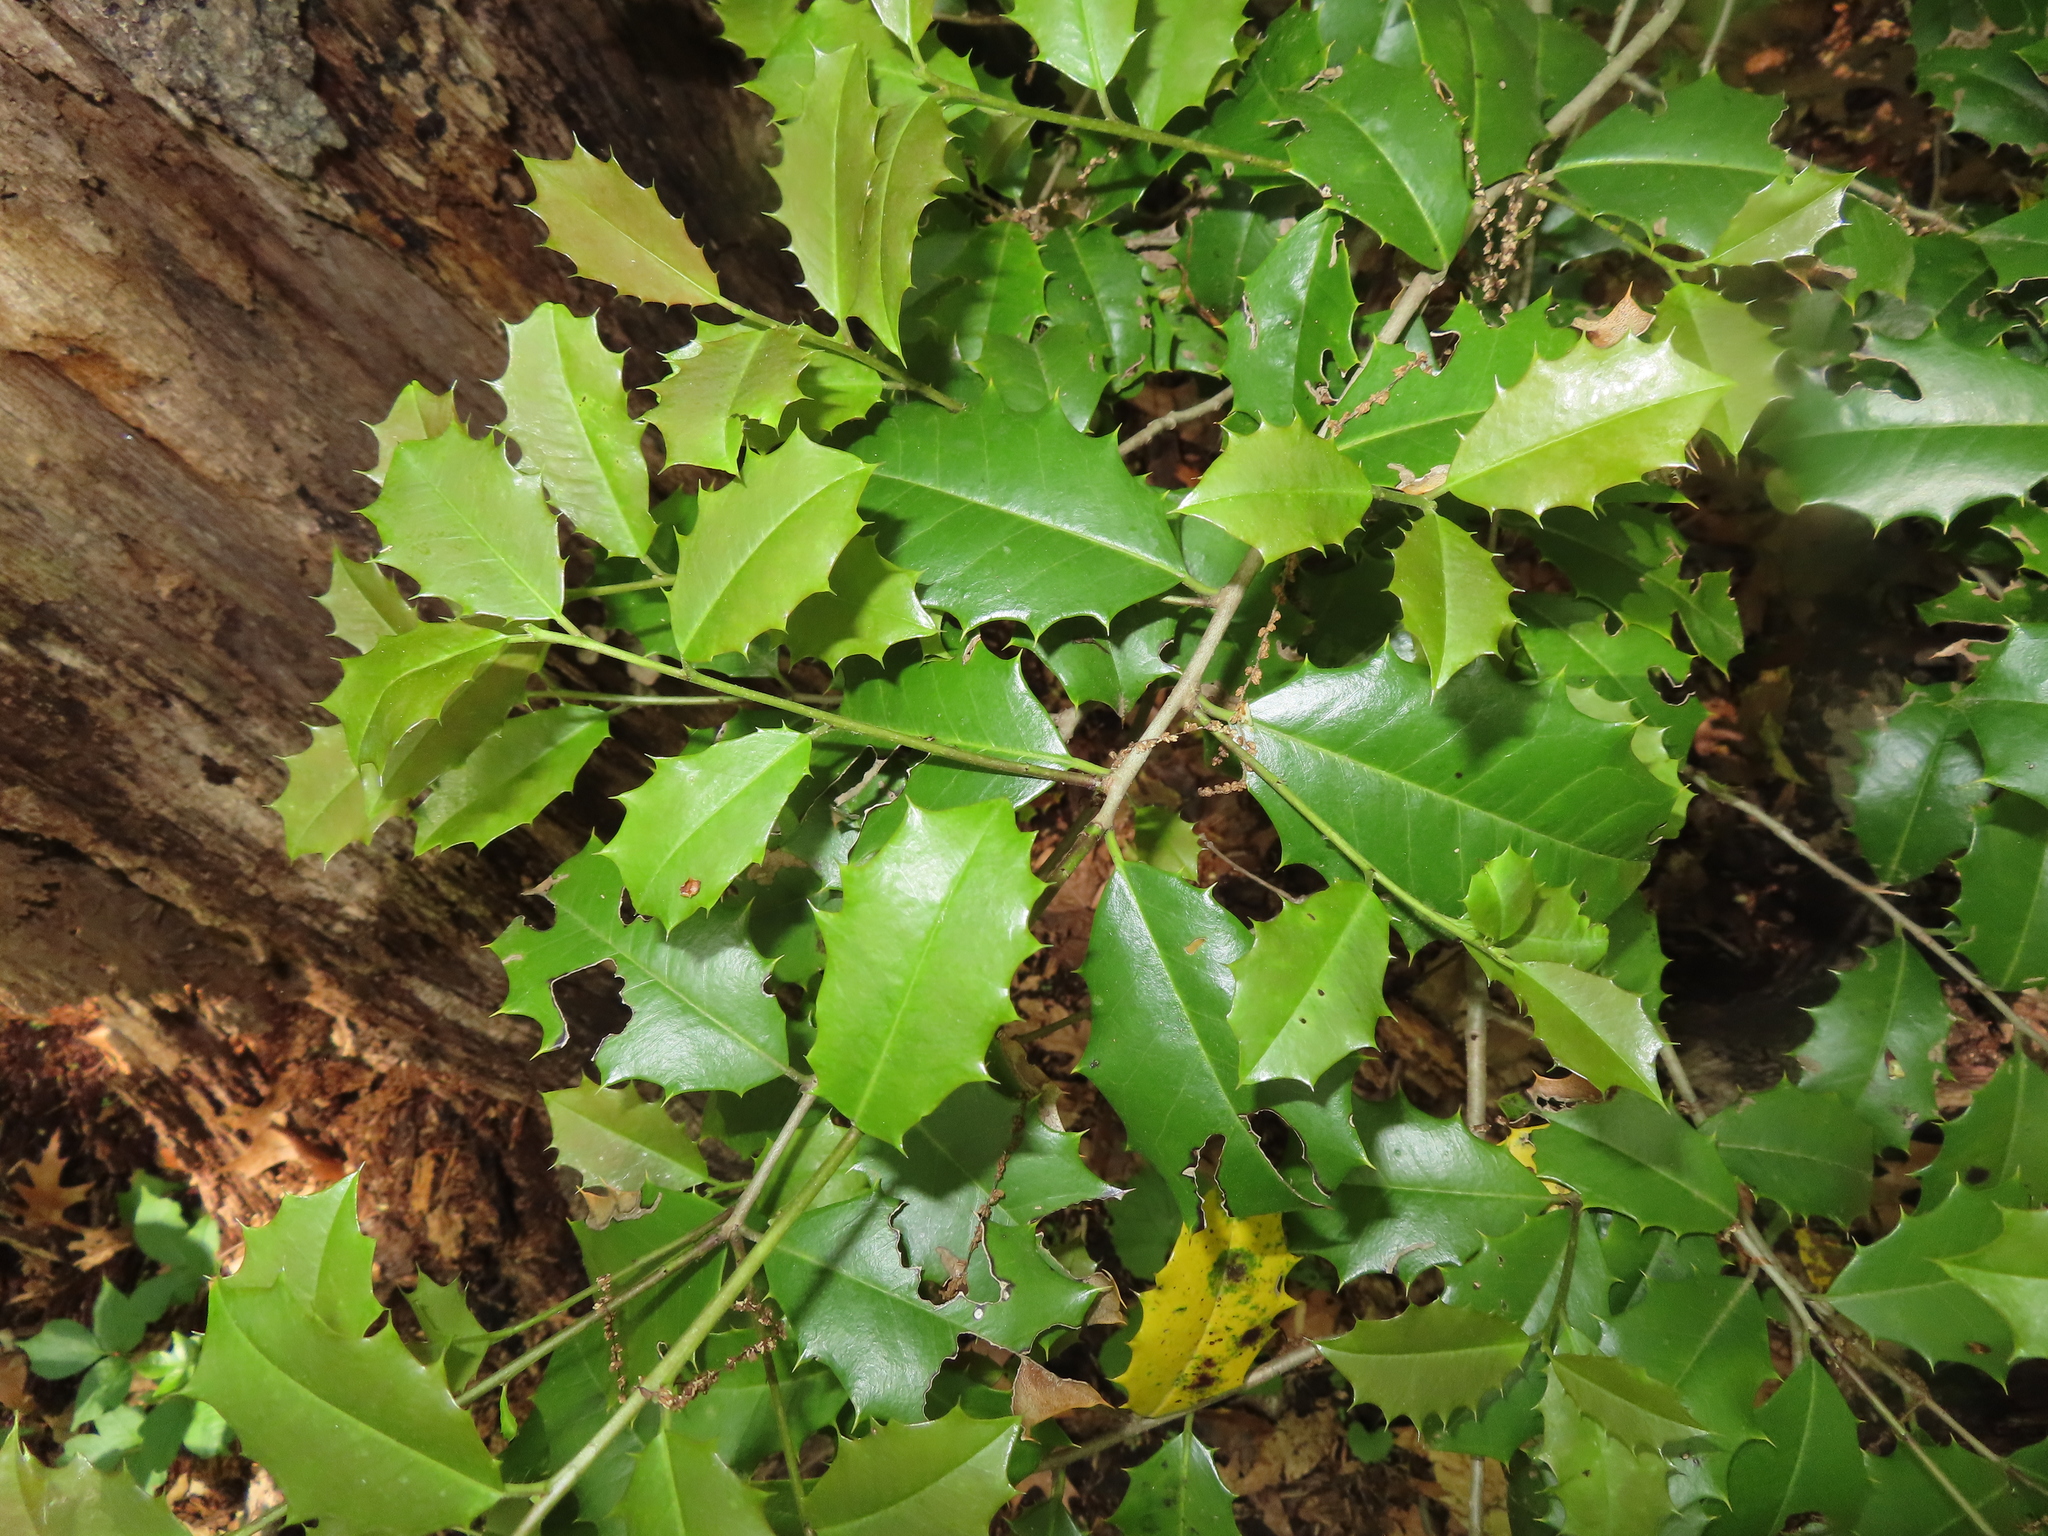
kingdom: Plantae
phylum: Tracheophyta
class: Magnoliopsida
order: Aquifoliales
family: Aquifoliaceae
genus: Ilex
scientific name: Ilex opaca
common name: American holly
